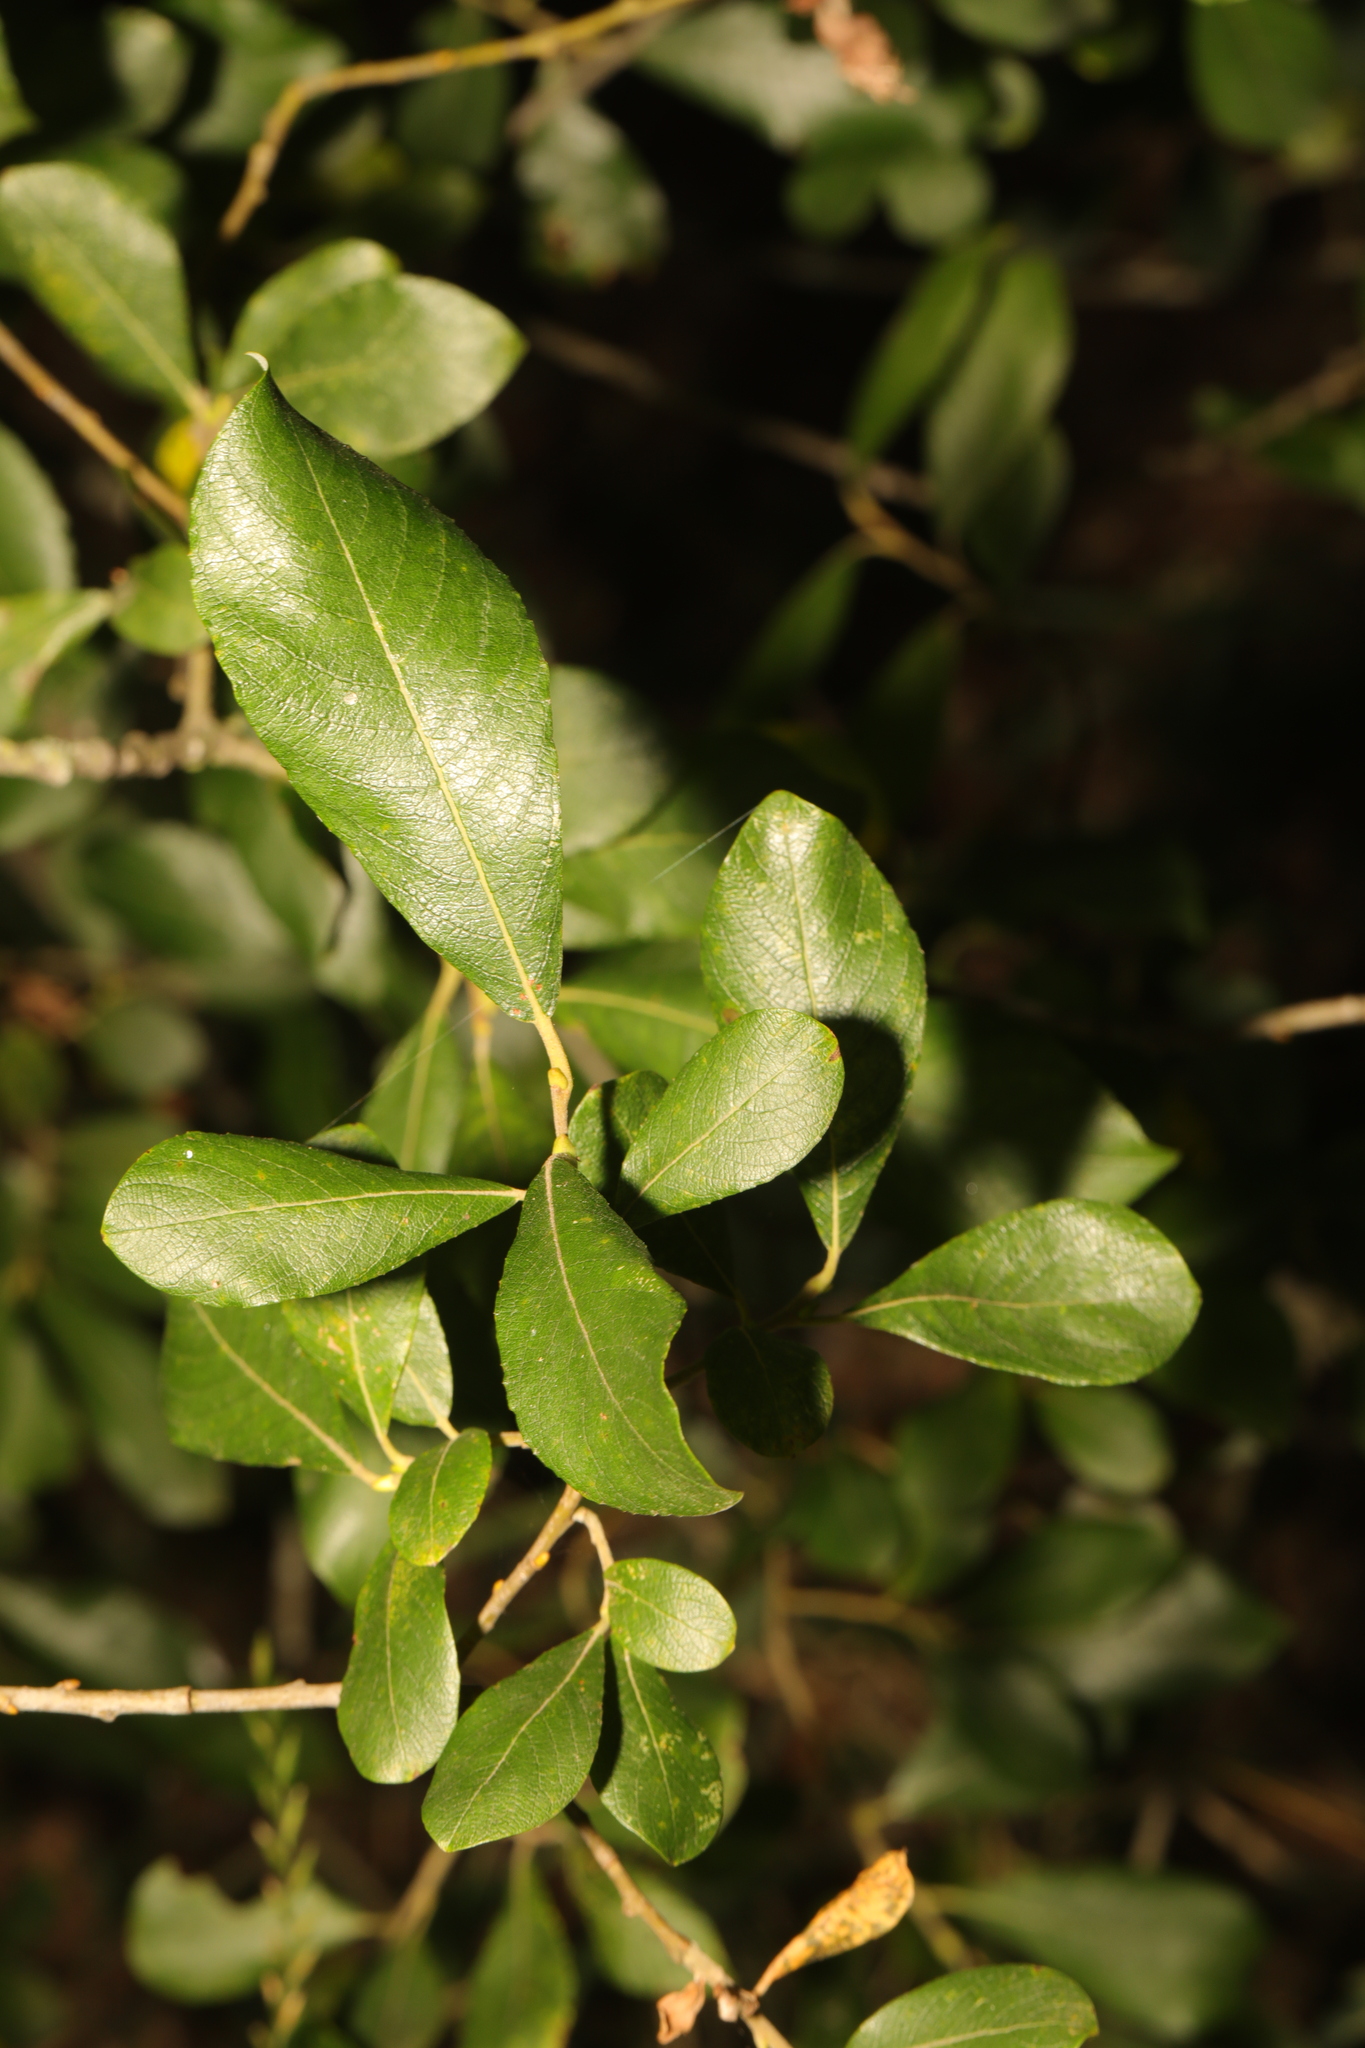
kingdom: Plantae
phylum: Tracheophyta
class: Magnoliopsida
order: Malpighiales
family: Salicaceae
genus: Salix
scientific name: Salix atrocinerea
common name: Rusty willow
